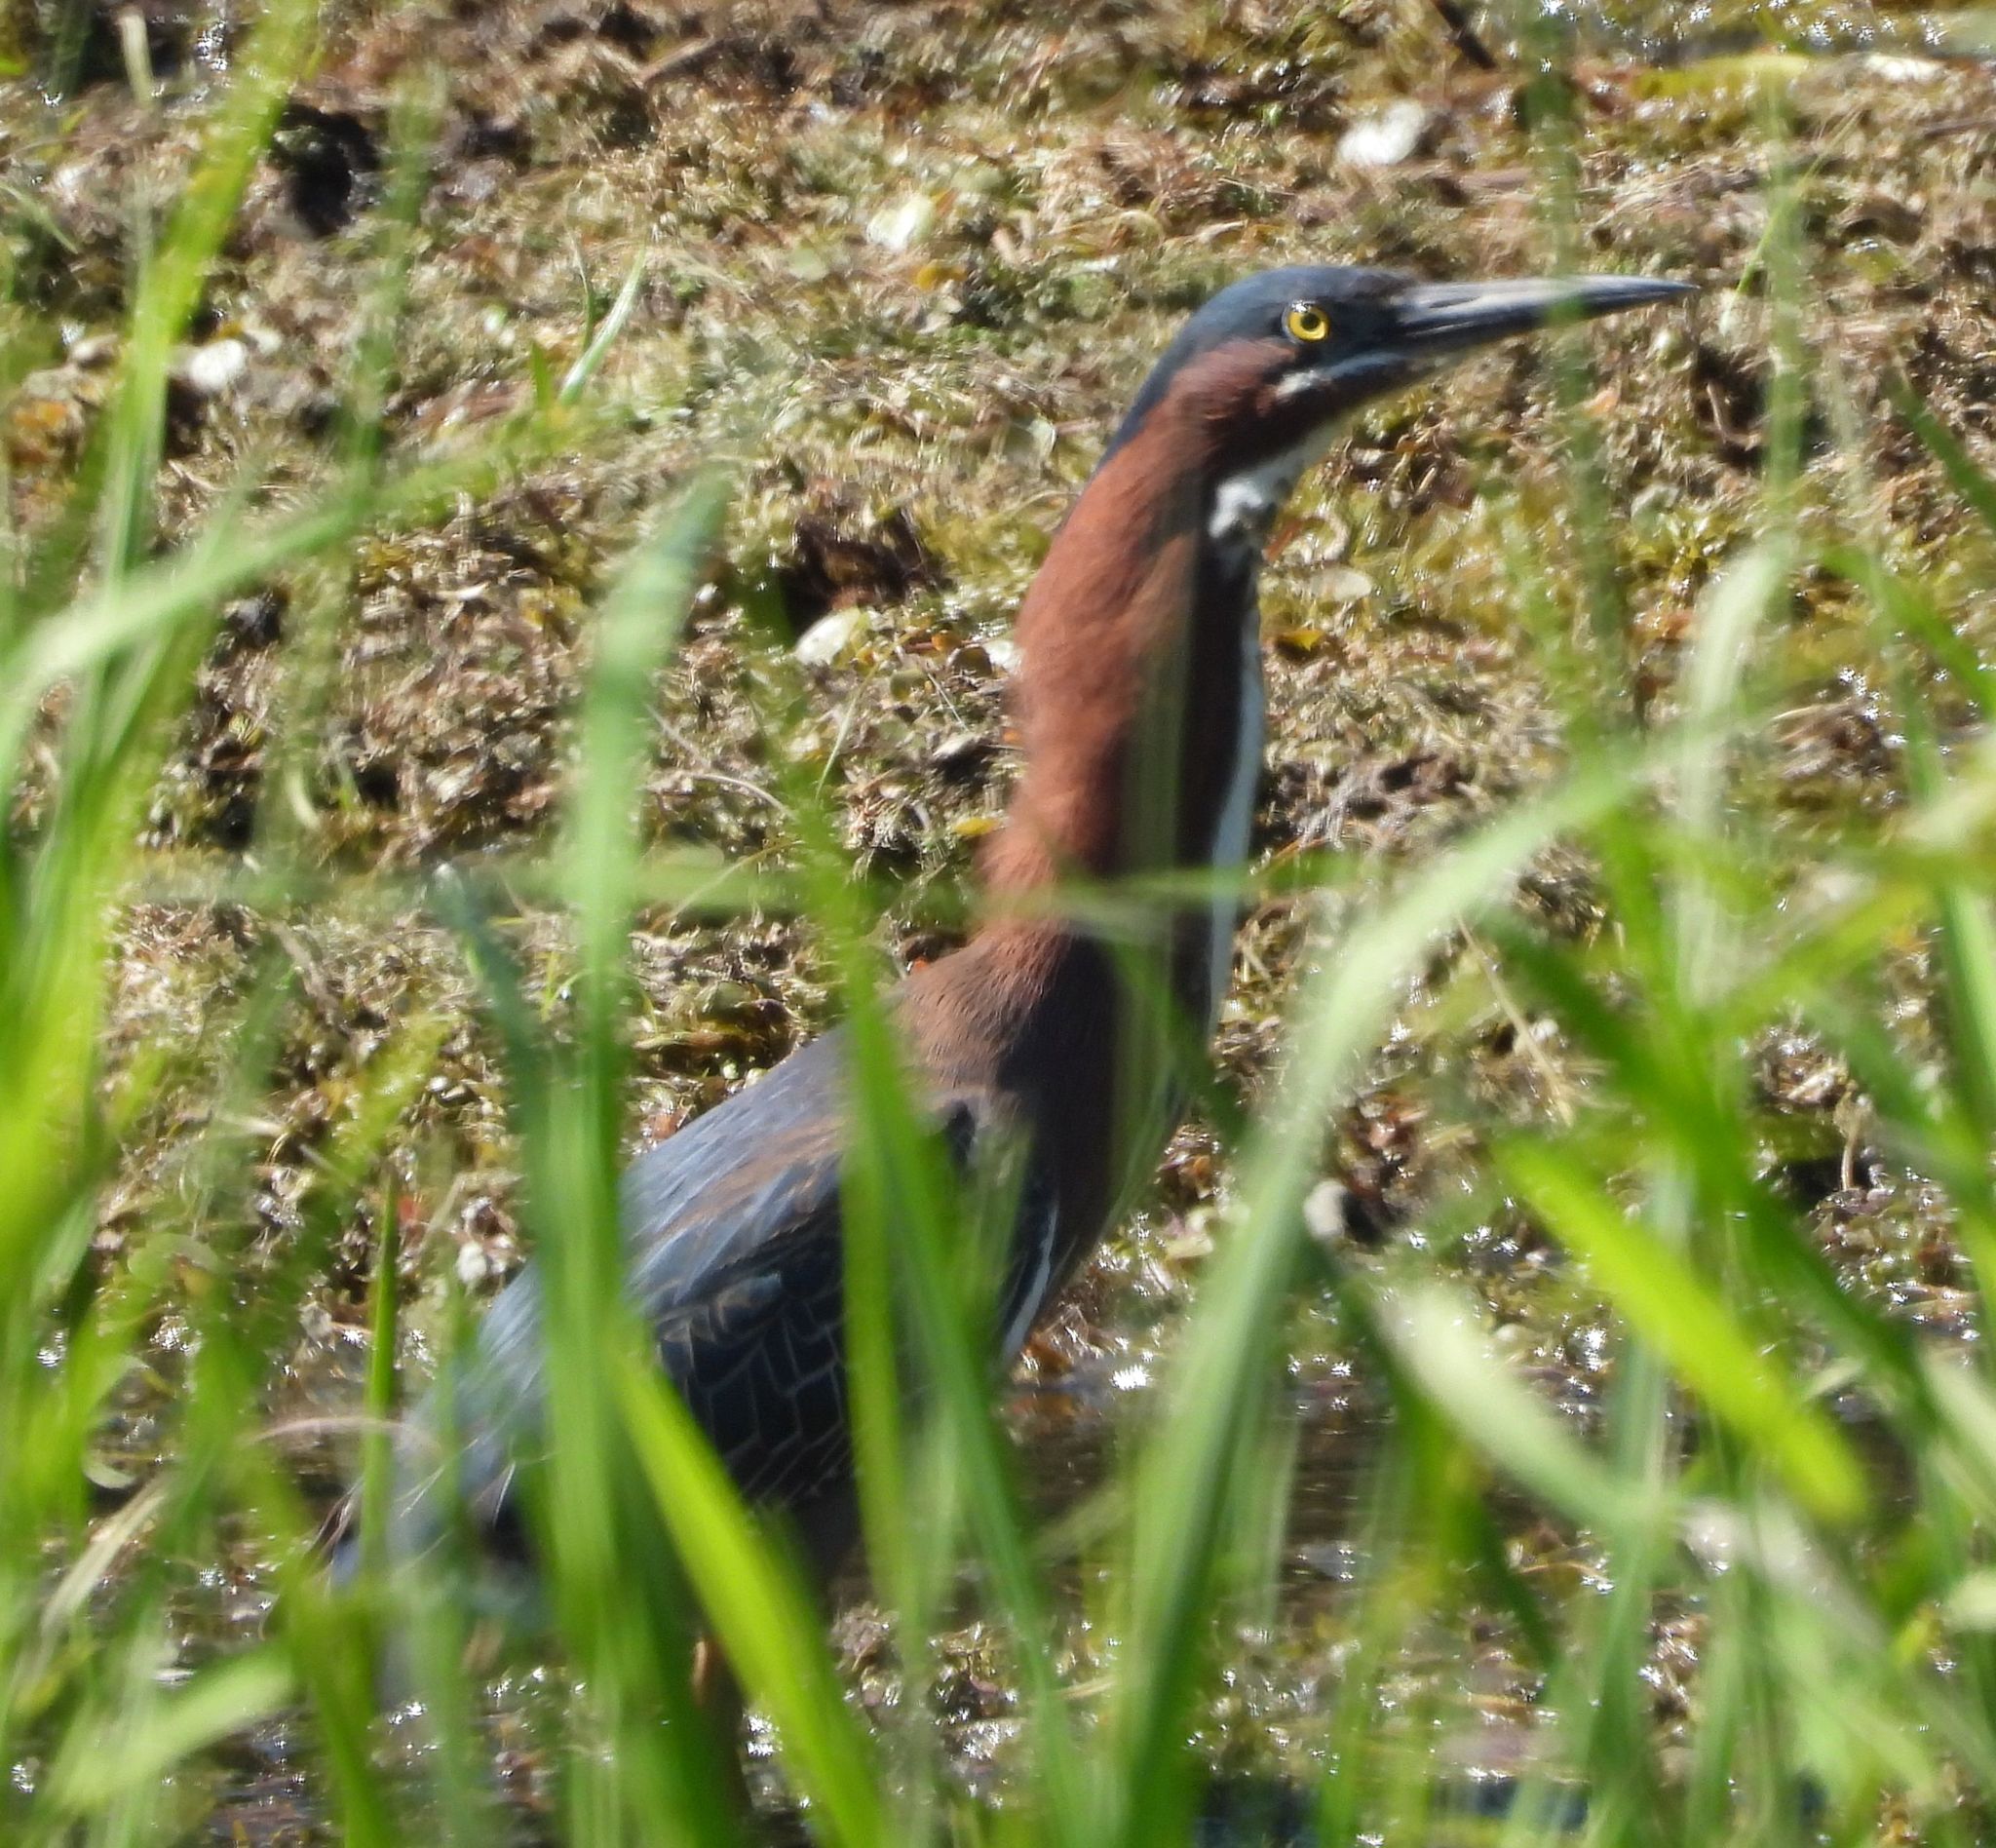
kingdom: Animalia
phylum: Chordata
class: Aves
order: Pelecaniformes
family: Ardeidae
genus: Butorides
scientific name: Butorides virescens
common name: Green heron
